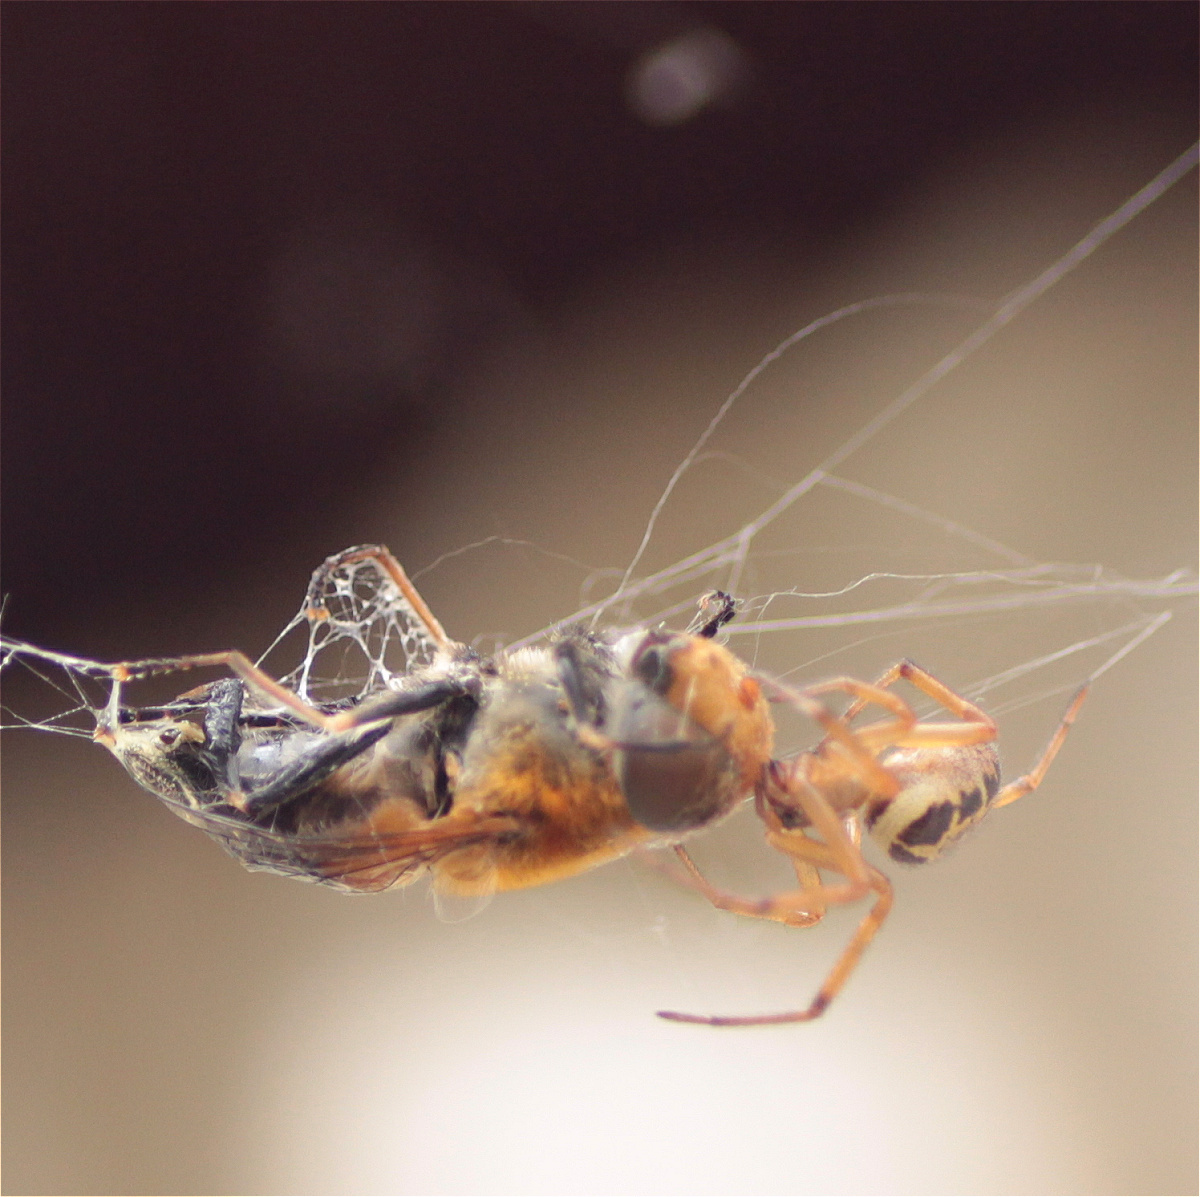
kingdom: Animalia
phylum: Arthropoda
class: Arachnida
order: Araneae
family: Theridiidae
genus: Steatoda
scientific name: Steatoda nobilis
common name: Cobweb weaver
